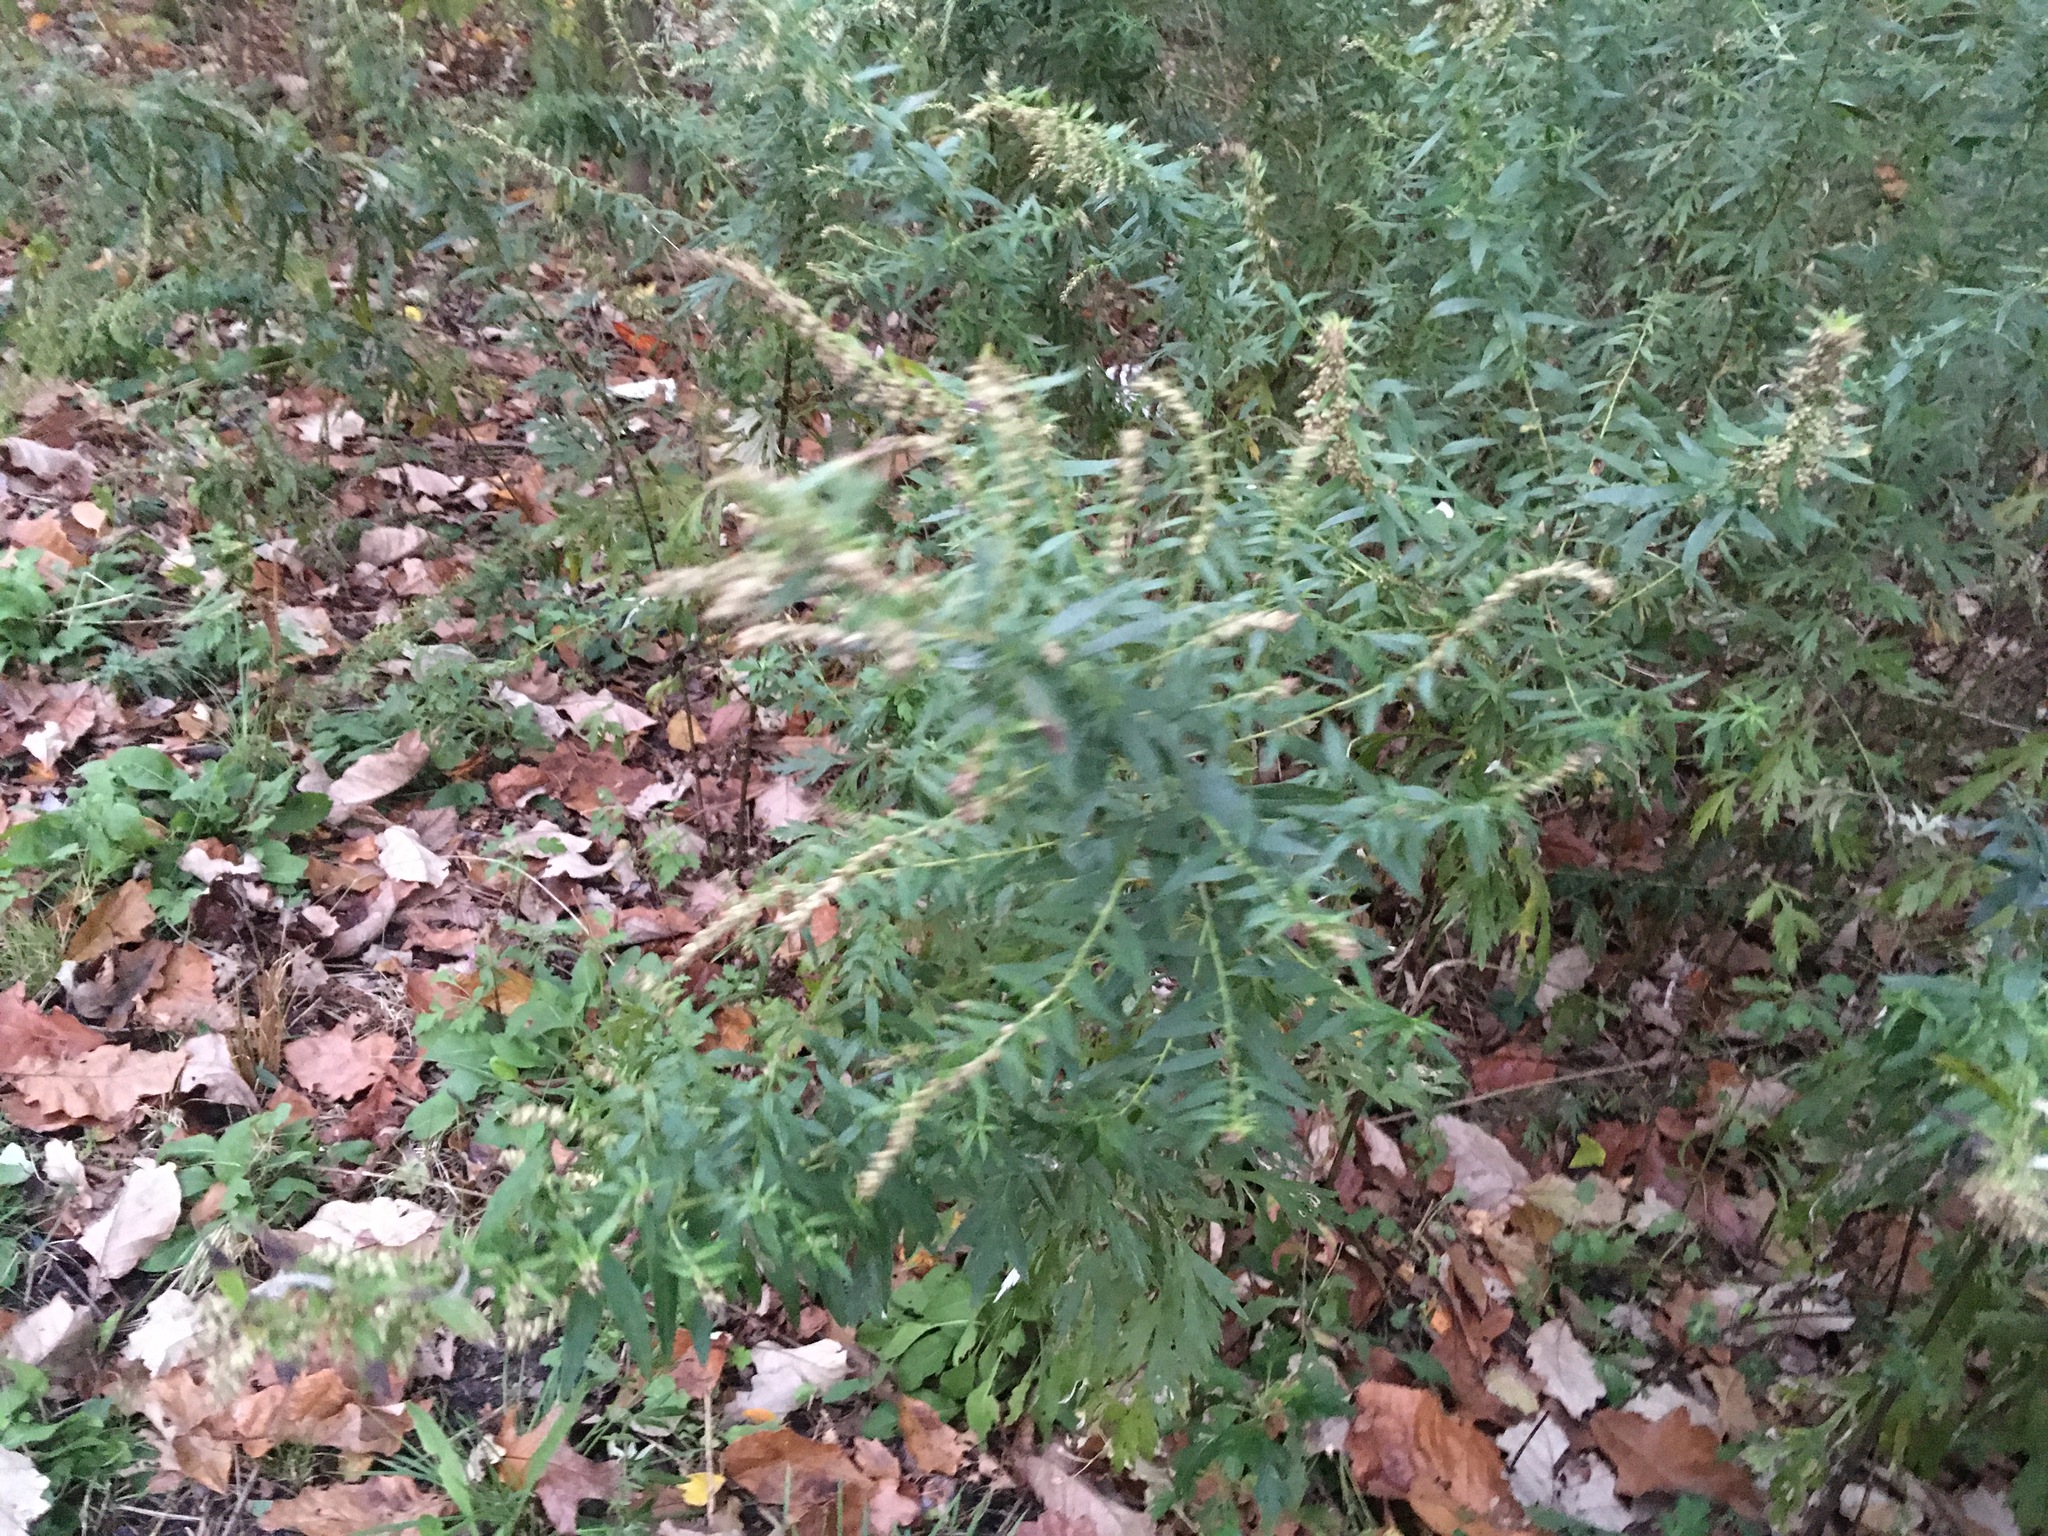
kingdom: Plantae
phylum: Tracheophyta
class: Magnoliopsida
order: Asterales
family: Asteraceae
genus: Artemisia
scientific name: Artemisia vulgaris
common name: Mugwort
